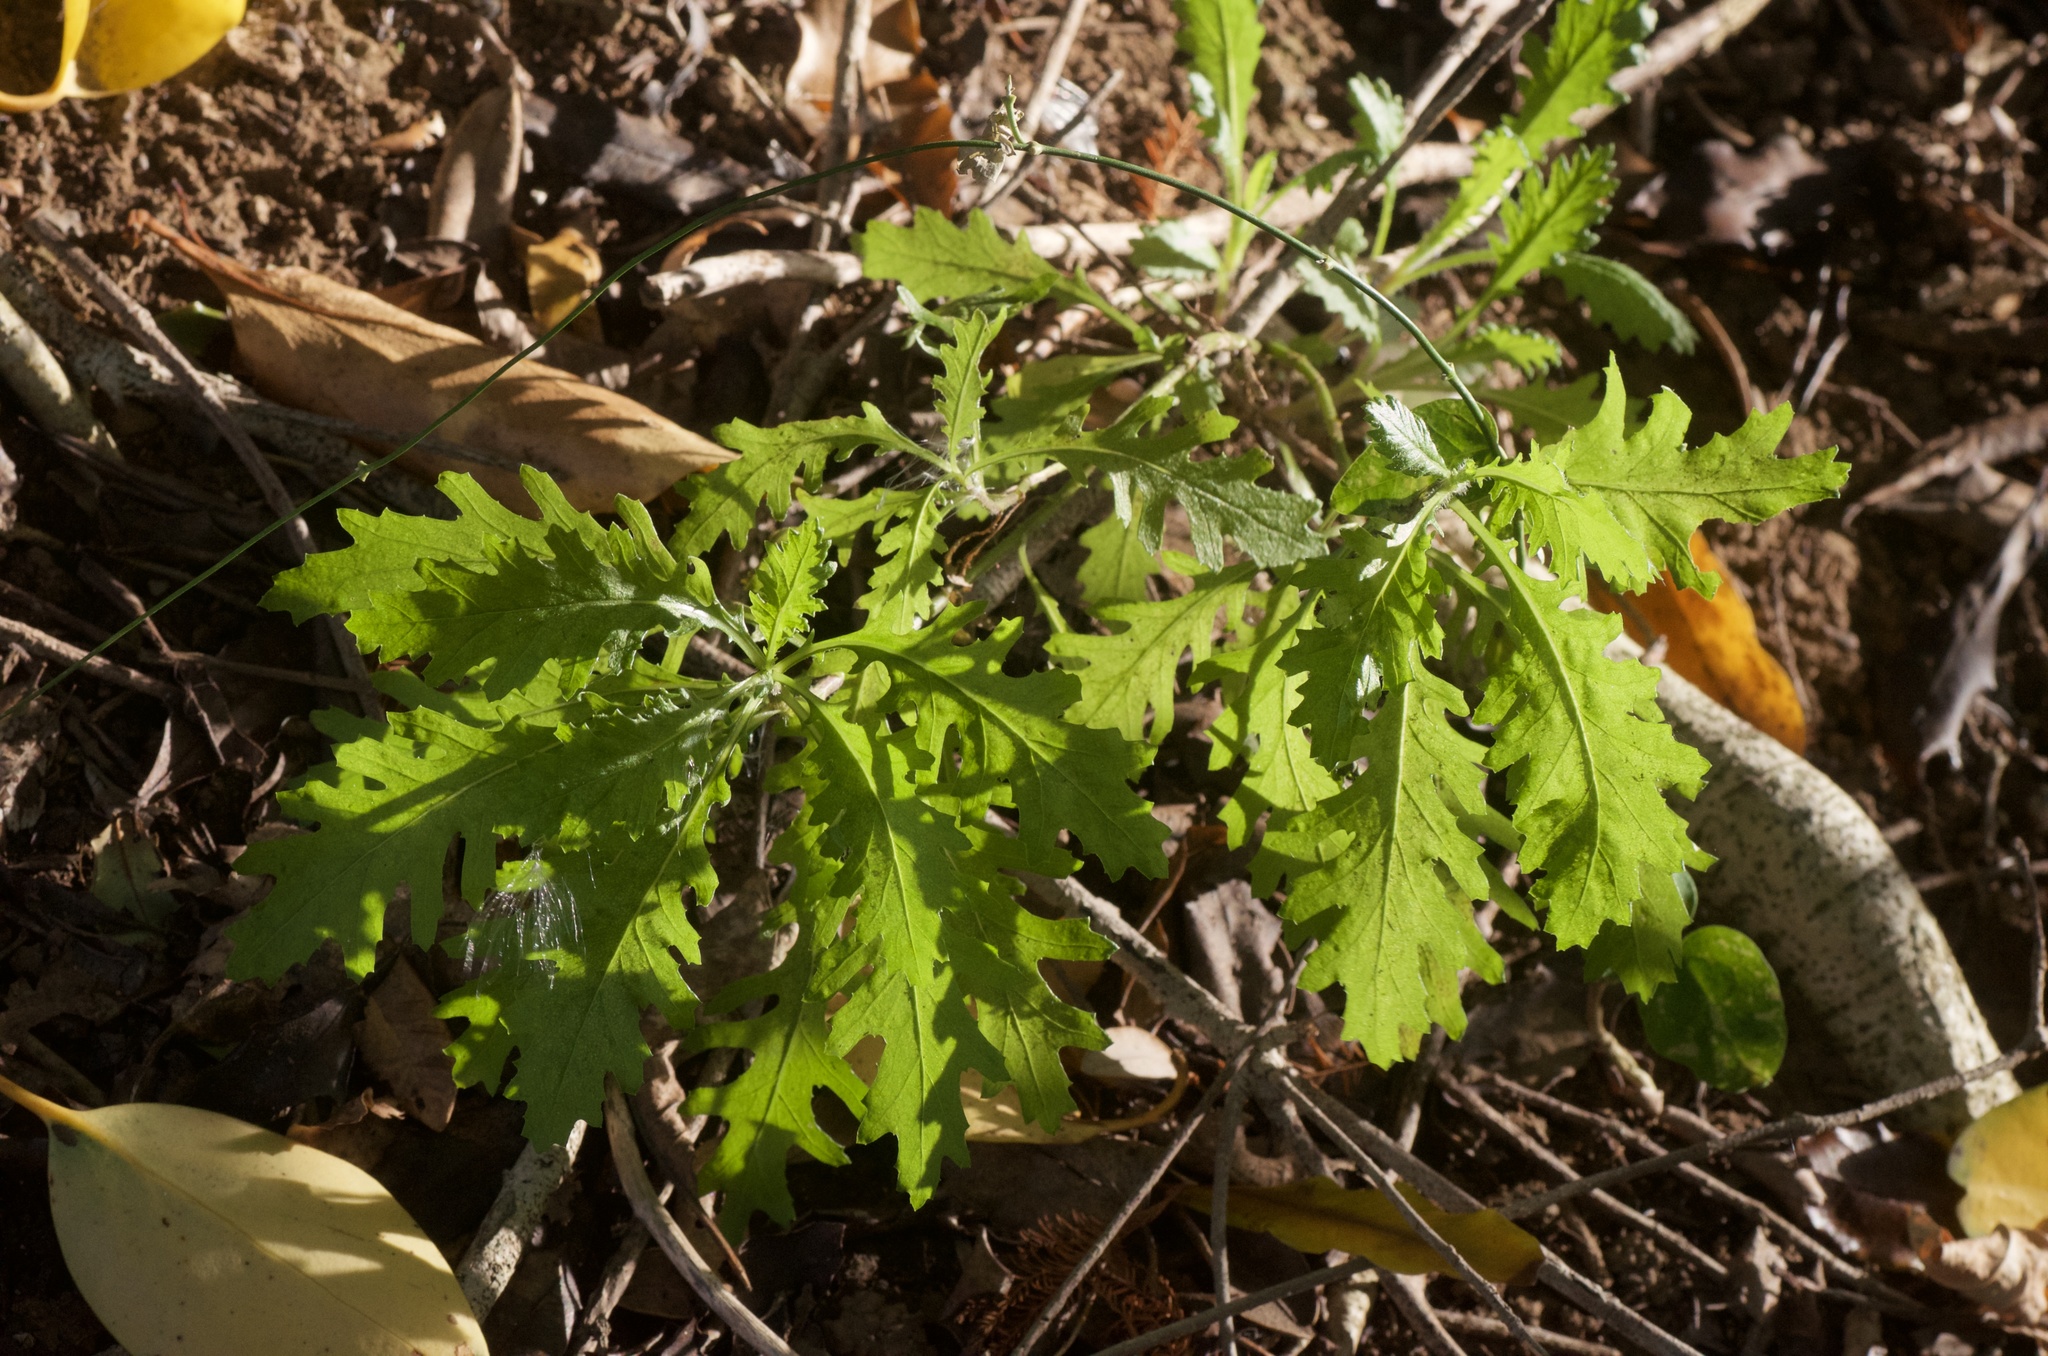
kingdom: Plantae
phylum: Tracheophyta
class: Magnoliopsida
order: Asterales
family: Asteraceae
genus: Senecio
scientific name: Senecio esleri
